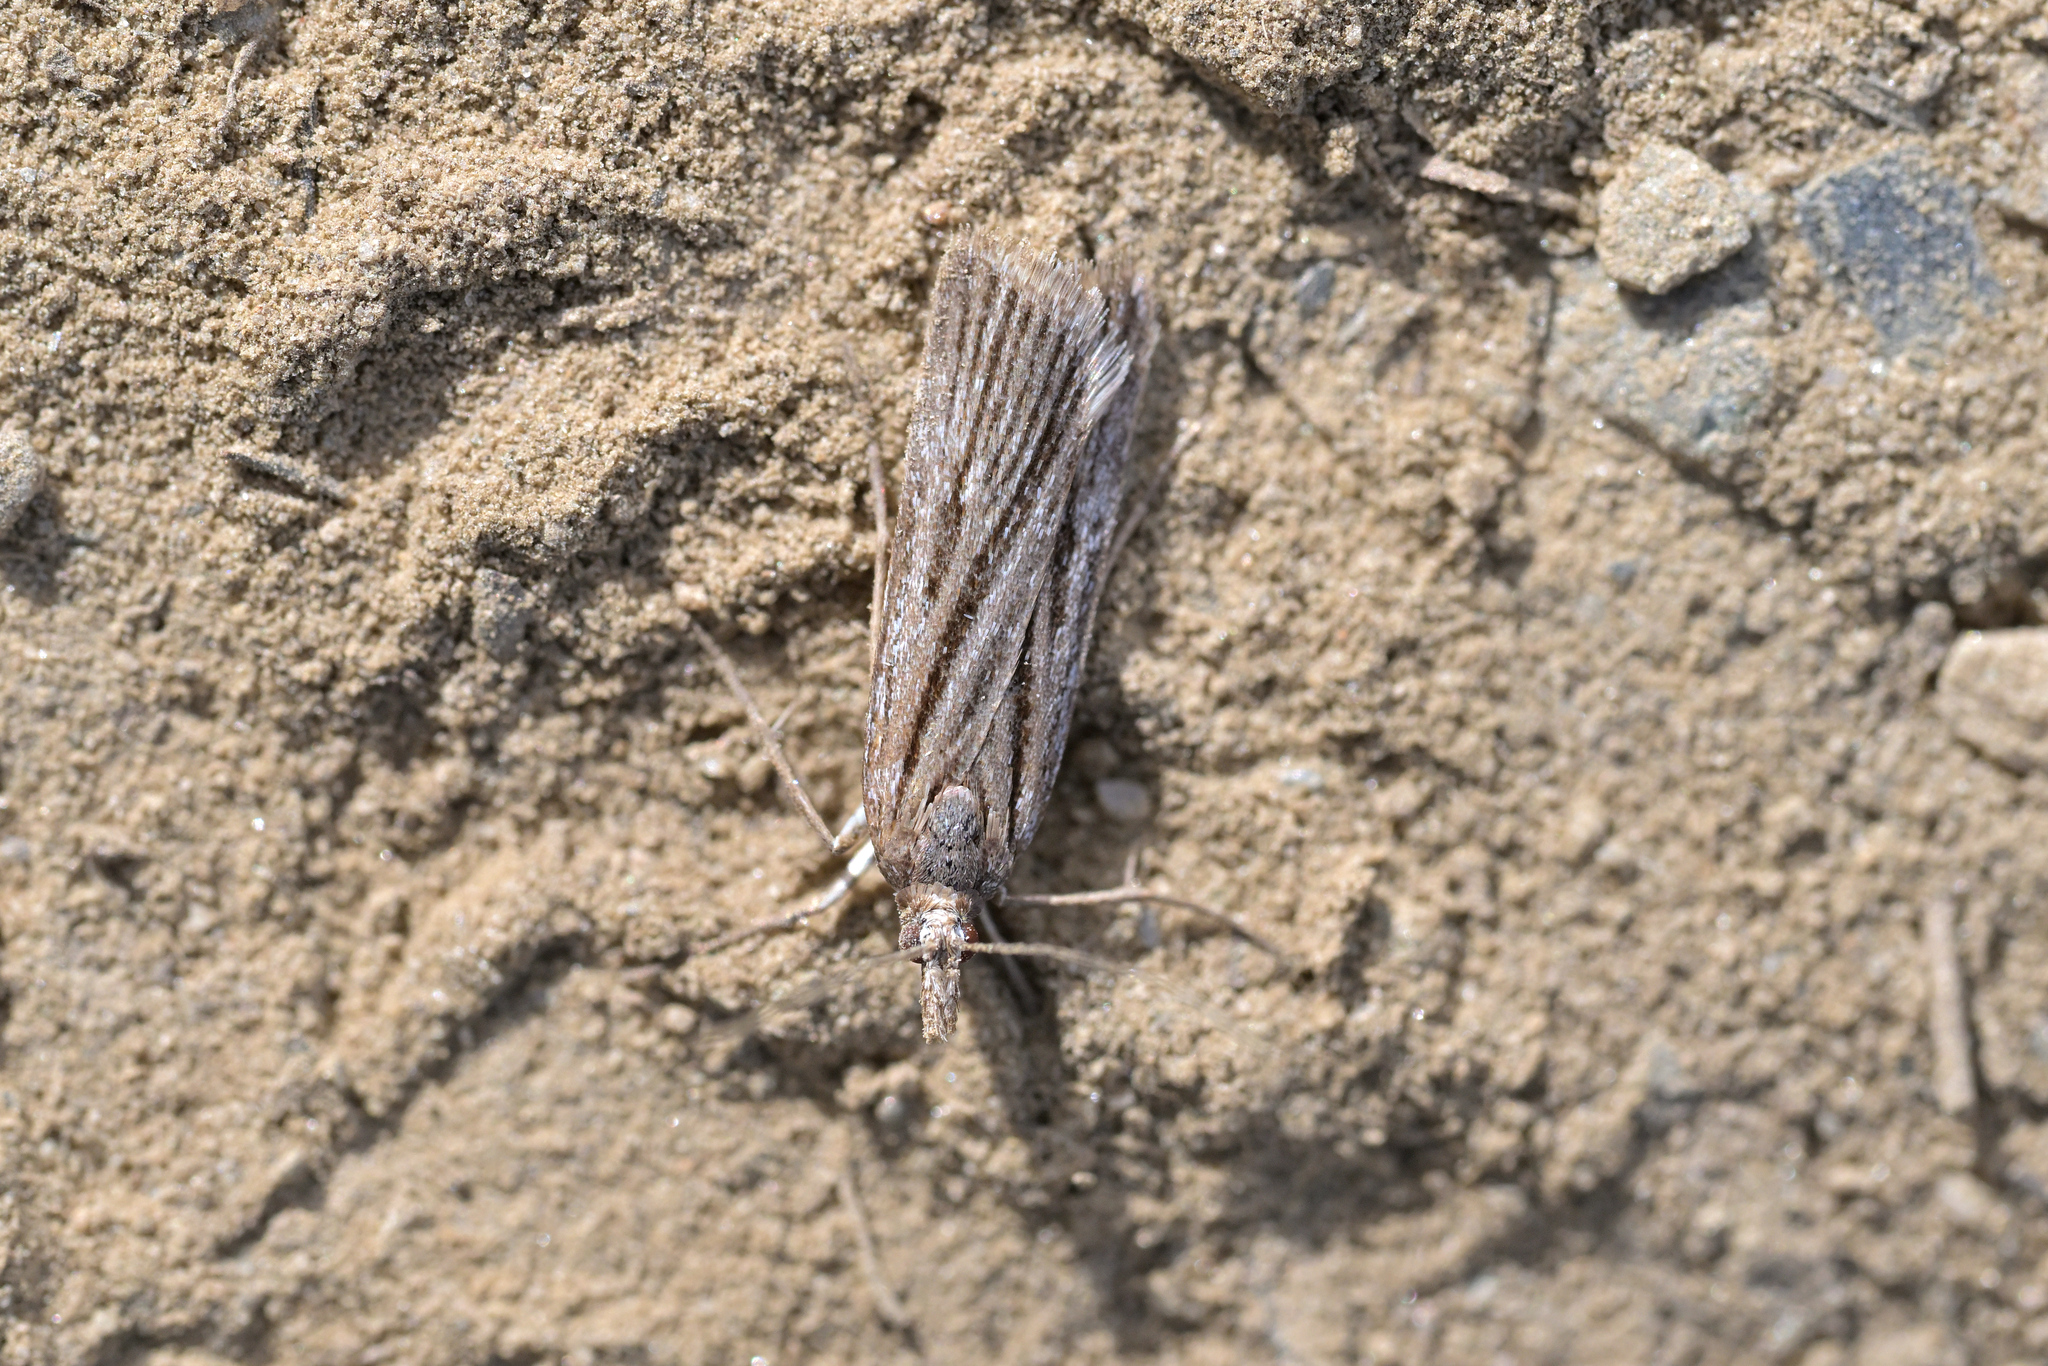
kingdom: Animalia
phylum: Arthropoda
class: Insecta
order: Lepidoptera
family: Crambidae
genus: Eudonia
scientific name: Eudonia crypsinoa
